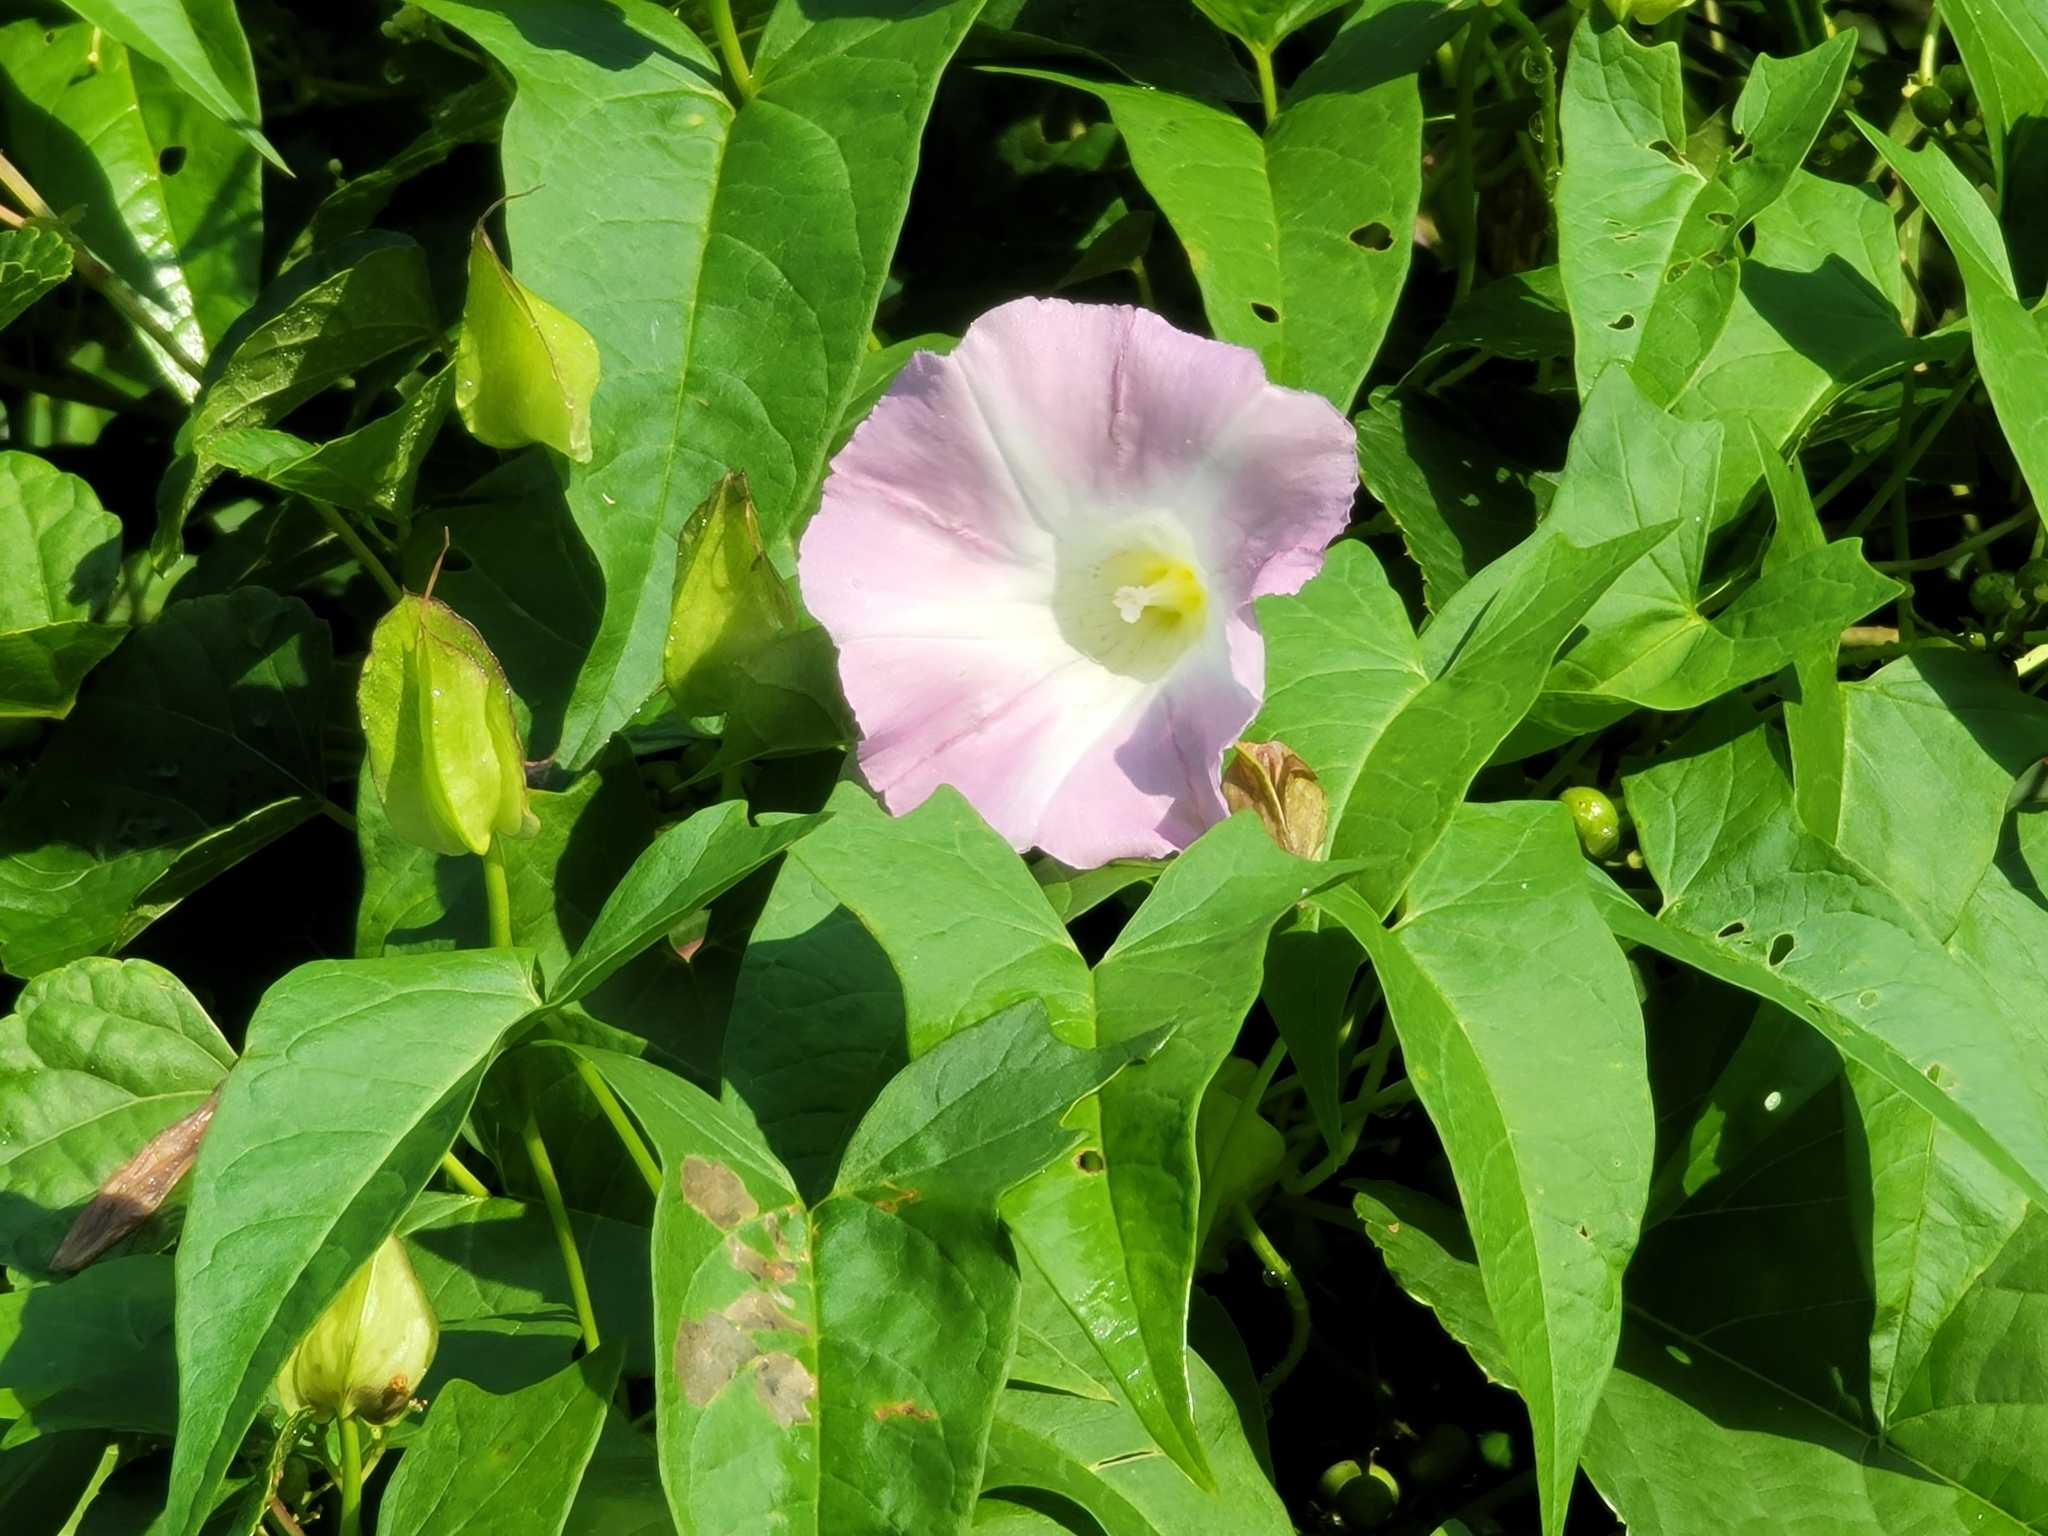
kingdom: Plantae
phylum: Tracheophyta
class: Magnoliopsida
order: Solanales
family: Convolvulaceae
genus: Calystegia
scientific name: Calystegia sepium
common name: Hedge bindweed
